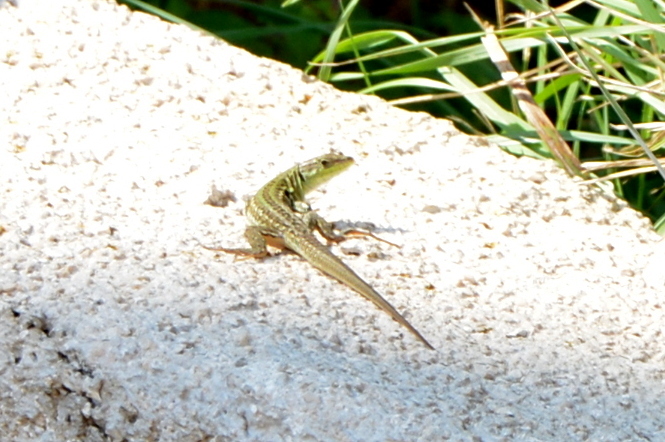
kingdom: Animalia
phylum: Chordata
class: Squamata
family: Lacertidae
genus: Podarcis
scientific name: Podarcis siculus
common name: Italian wall lizard
